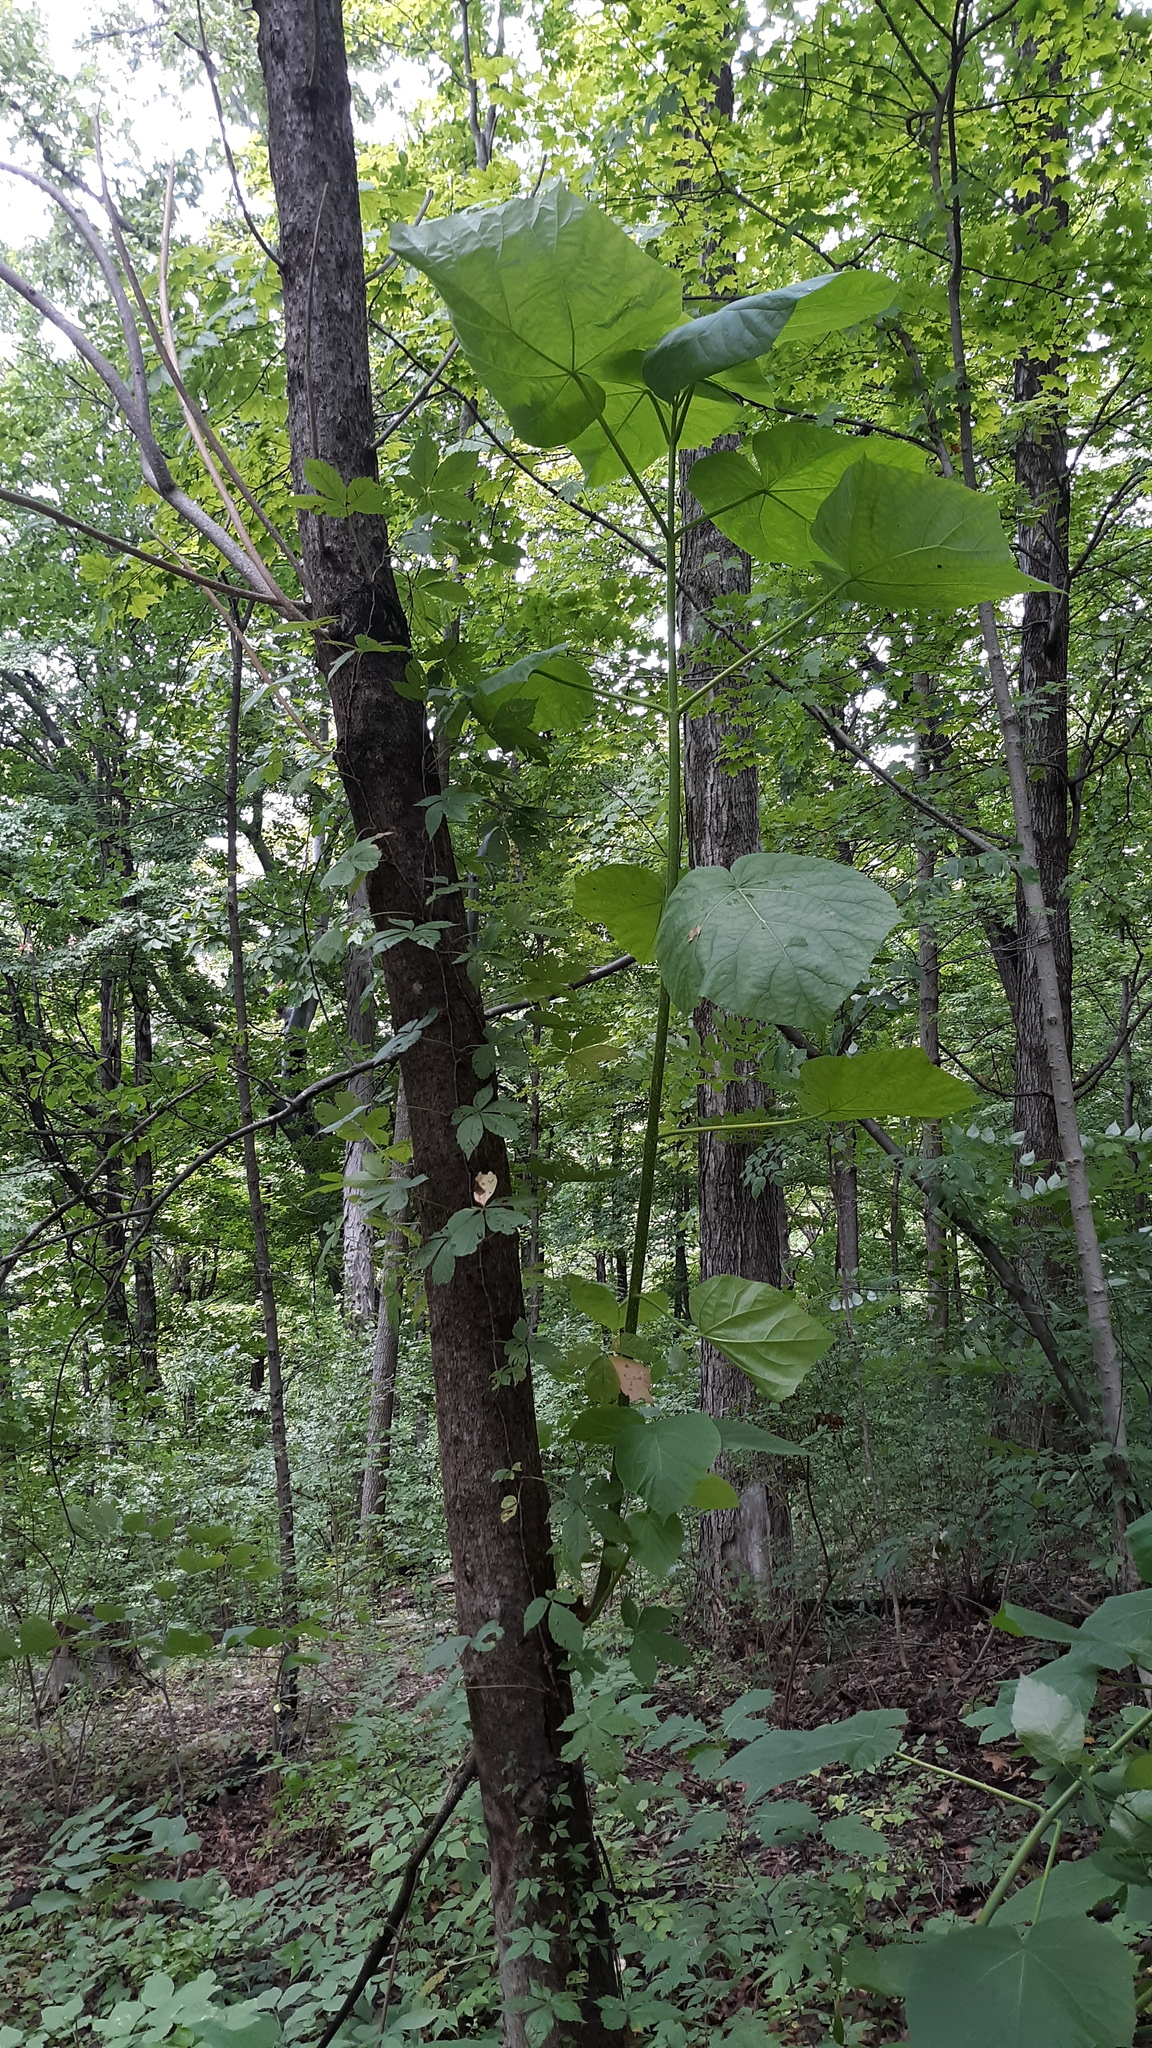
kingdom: Plantae
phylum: Tracheophyta
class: Magnoliopsida
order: Lamiales
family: Paulowniaceae
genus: Paulownia
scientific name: Paulownia tomentosa
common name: Foxglove-tree
